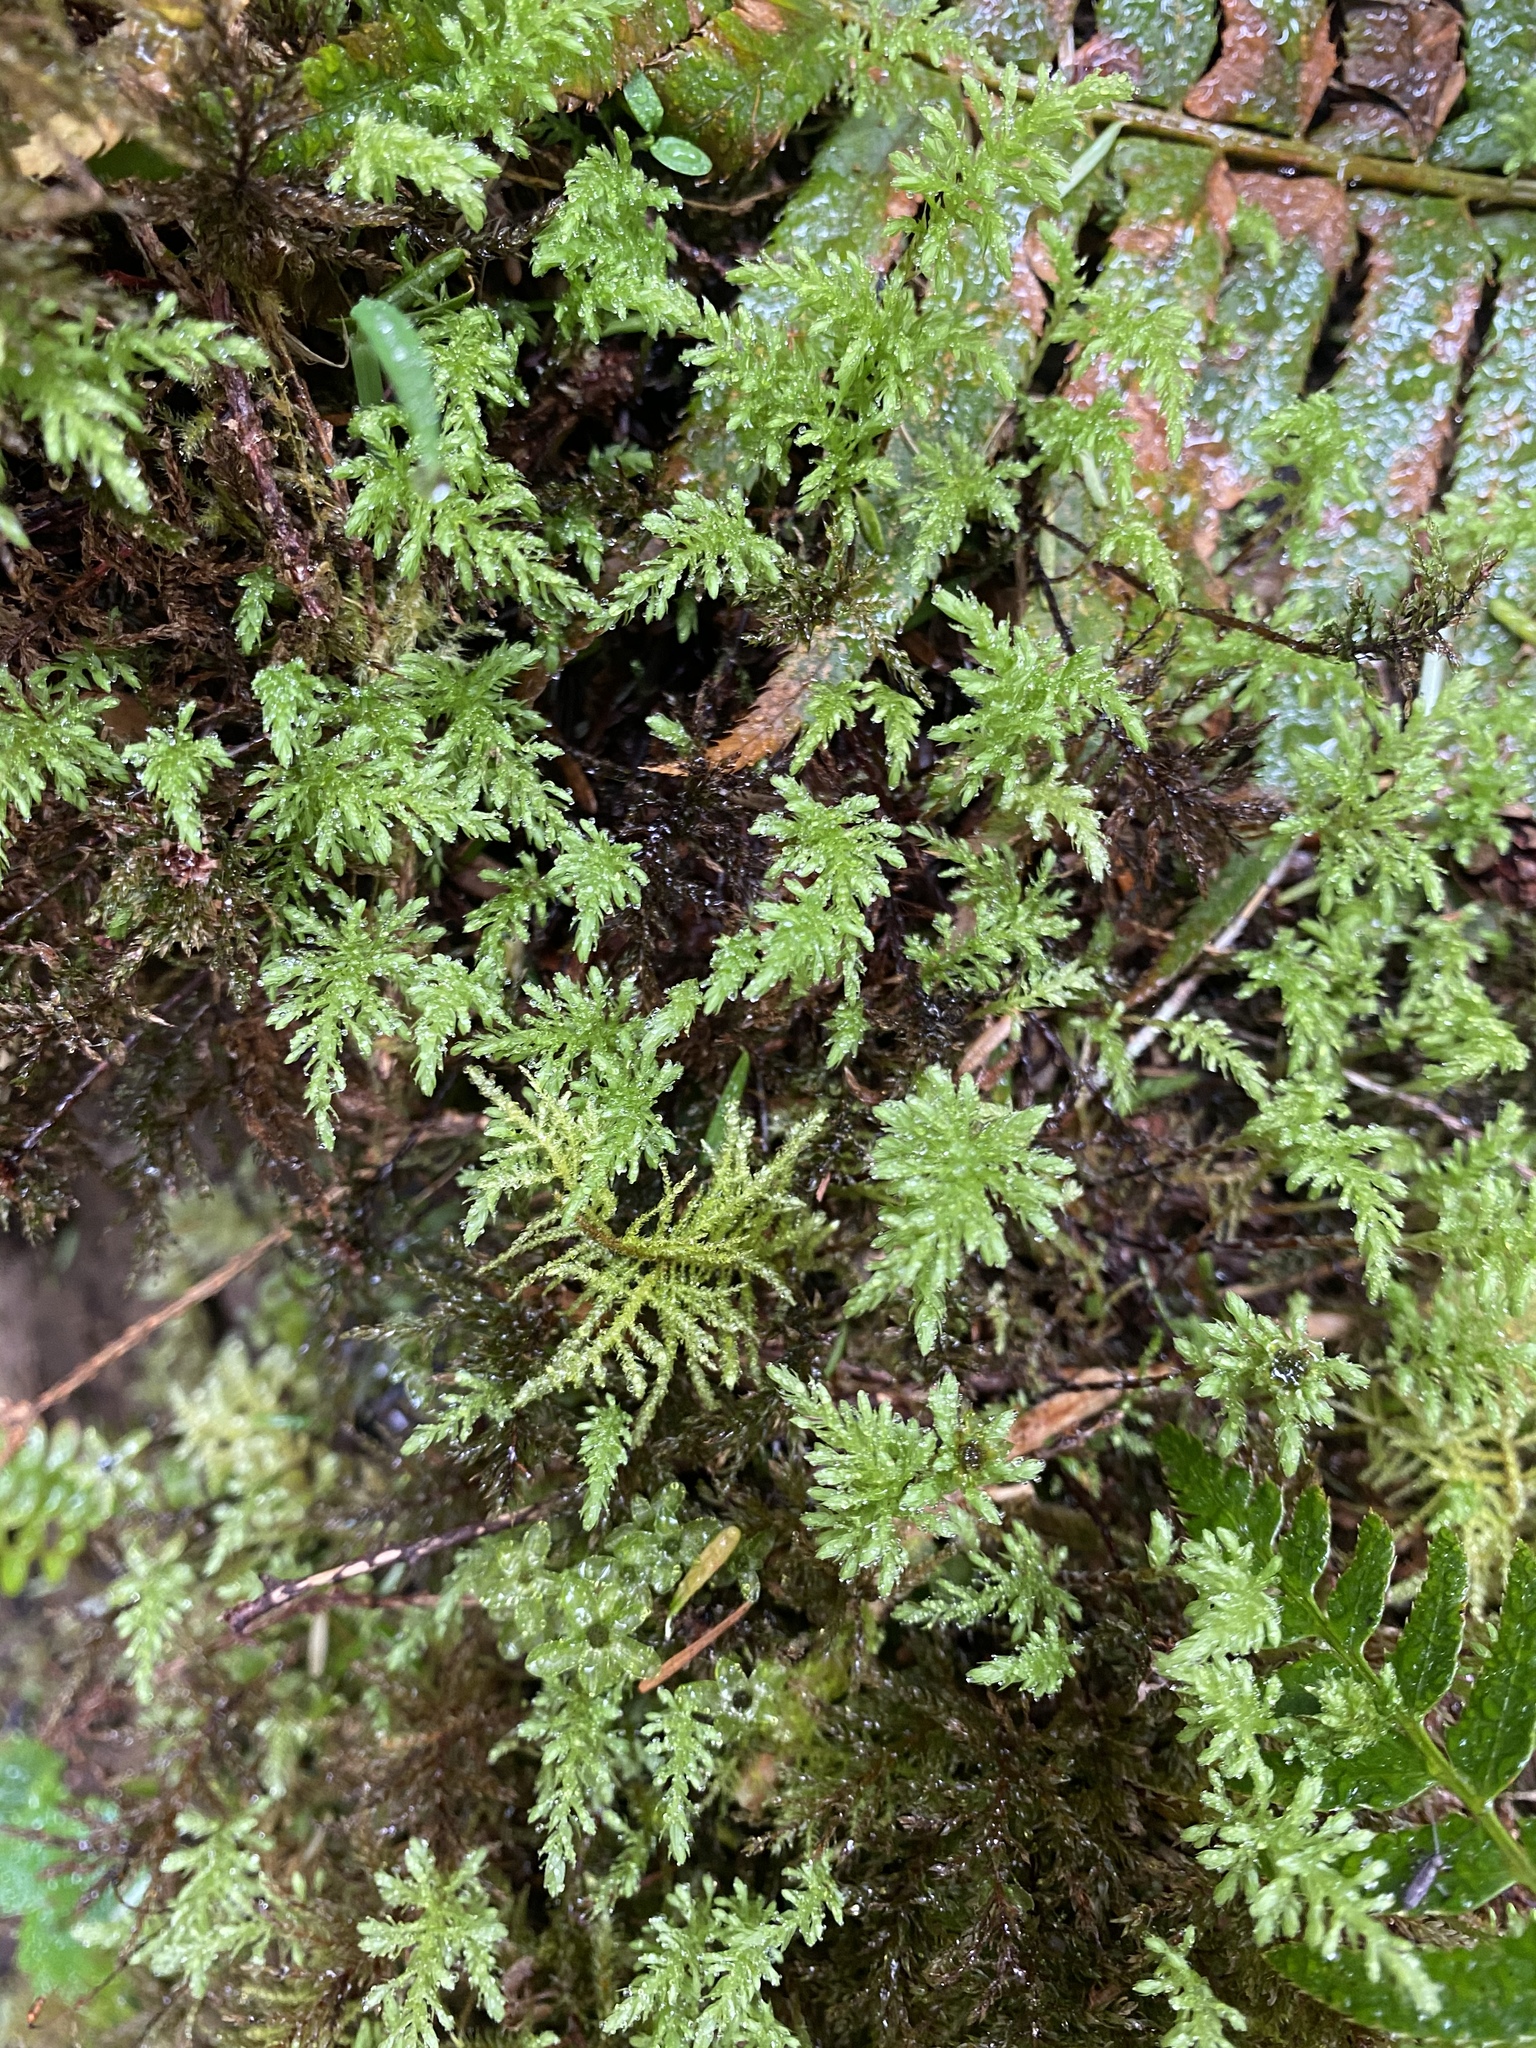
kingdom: Plantae
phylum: Bryophyta
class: Bryopsida
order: Bryales
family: Mniaceae
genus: Leucolepis
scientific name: Leucolepis acanthoneura
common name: Leucolepis umbrella moss
